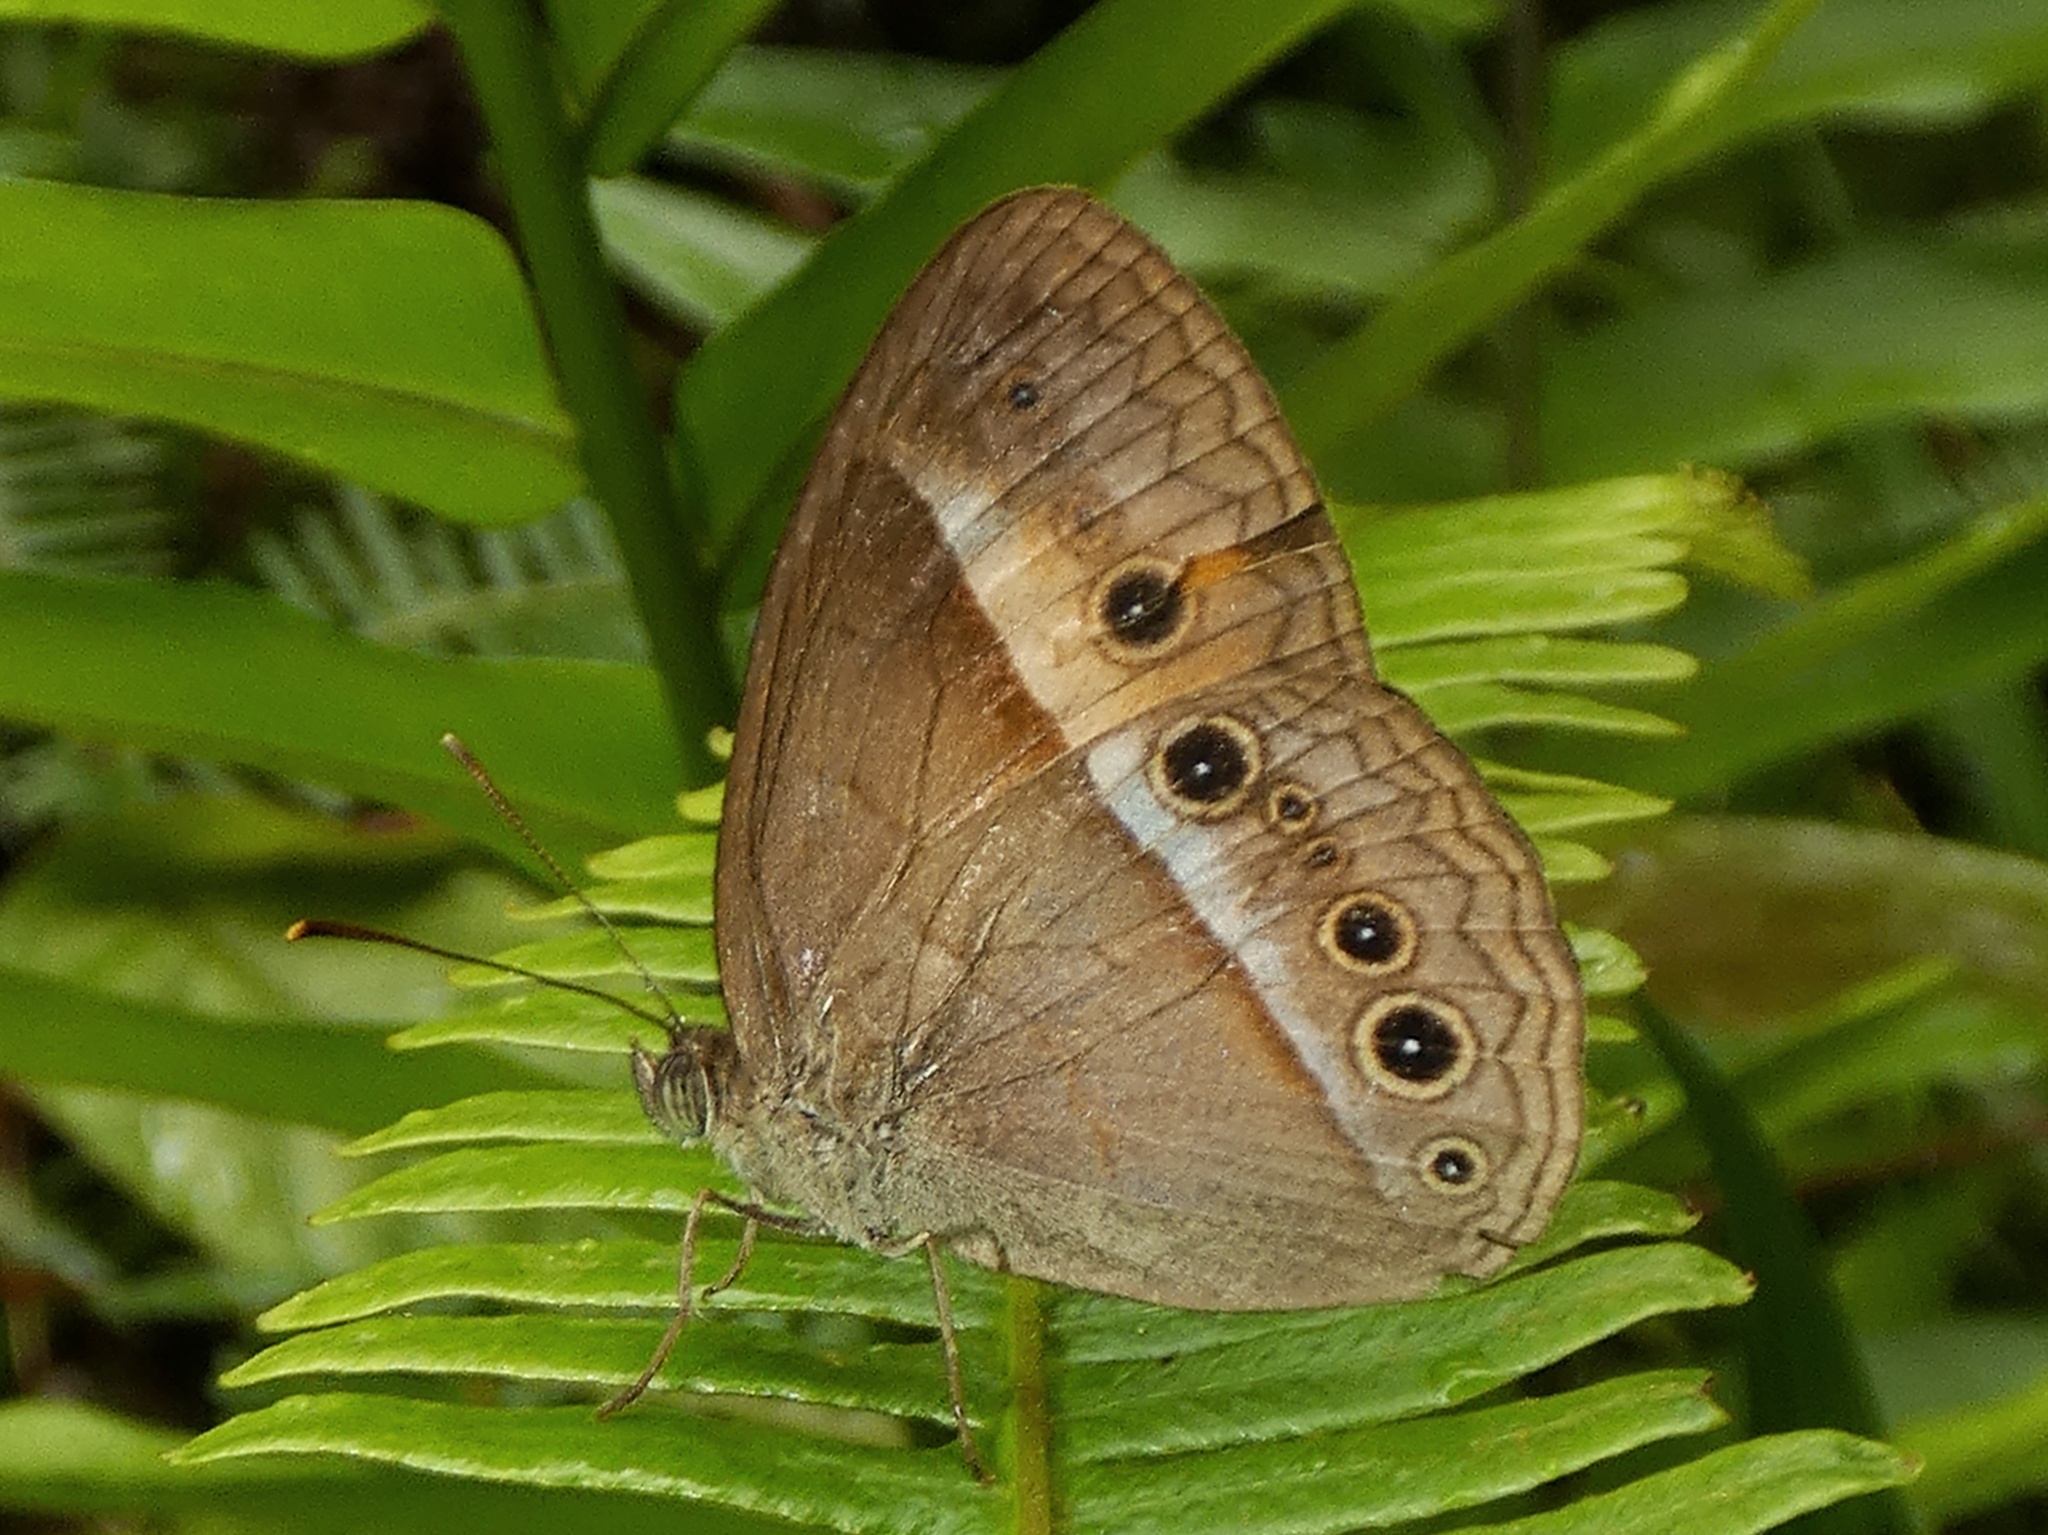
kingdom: Animalia
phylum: Arthropoda
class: Insecta
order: Lepidoptera
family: Nymphalidae
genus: Mycalesis
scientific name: Mycalesis terminus
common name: Orange bushbrown
